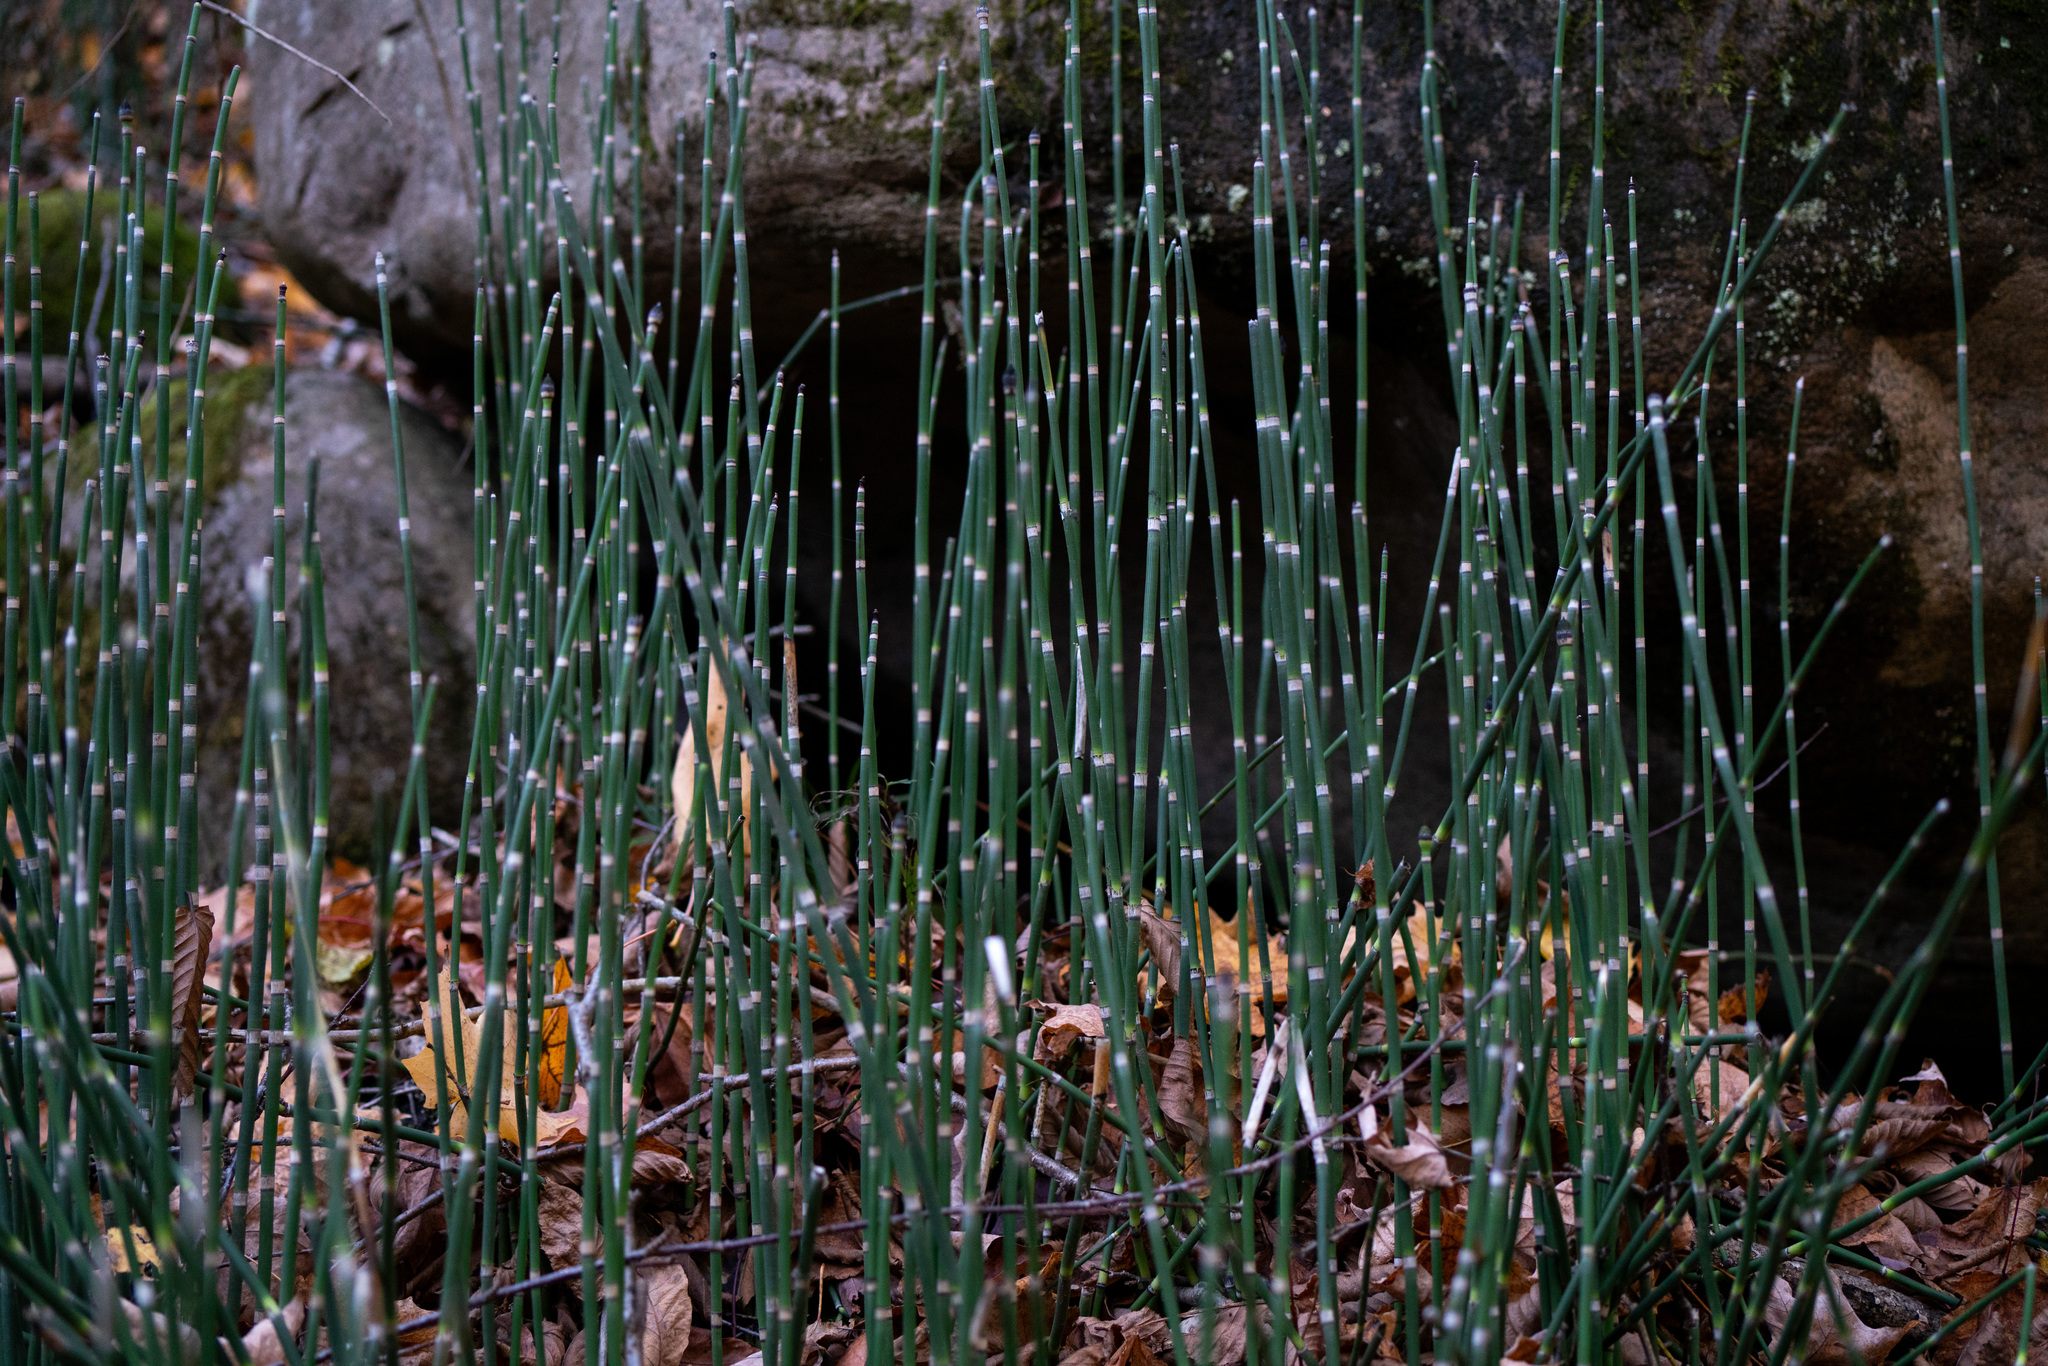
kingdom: Plantae
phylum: Tracheophyta
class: Polypodiopsida
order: Equisetales
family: Equisetaceae
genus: Equisetum
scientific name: Equisetum hyemale
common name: Rough horsetail
